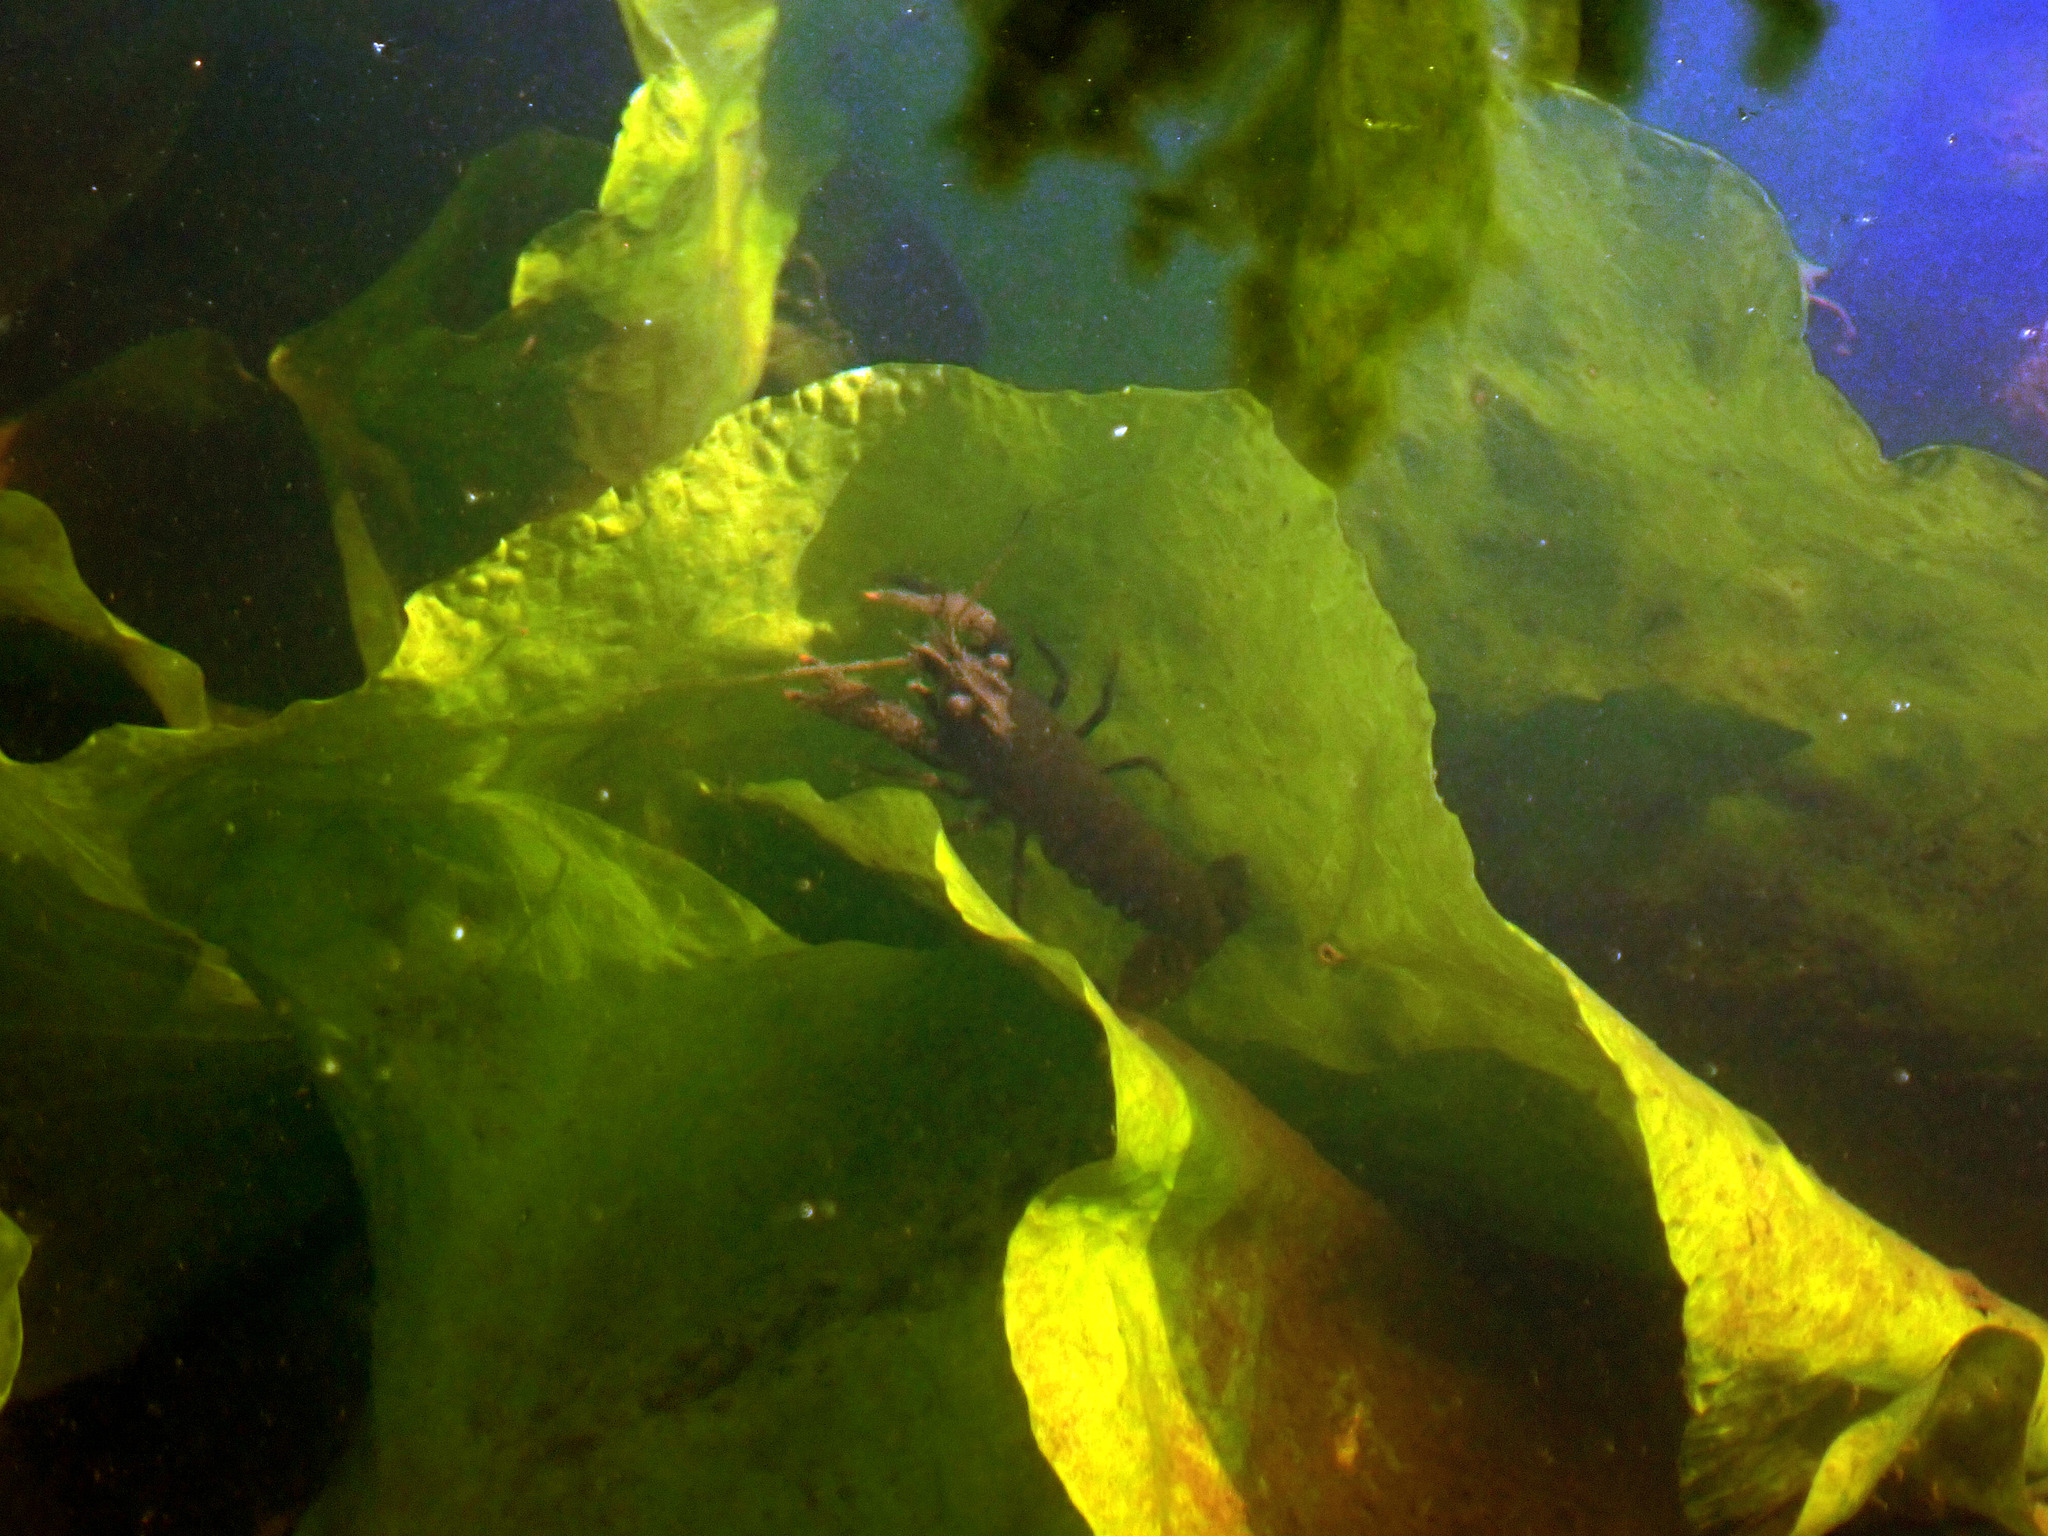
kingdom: Animalia
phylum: Arthropoda
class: Malacostraca
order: Decapoda
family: Cambaridae
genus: Faxonius
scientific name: Faxonius limosus
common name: American crayfish
